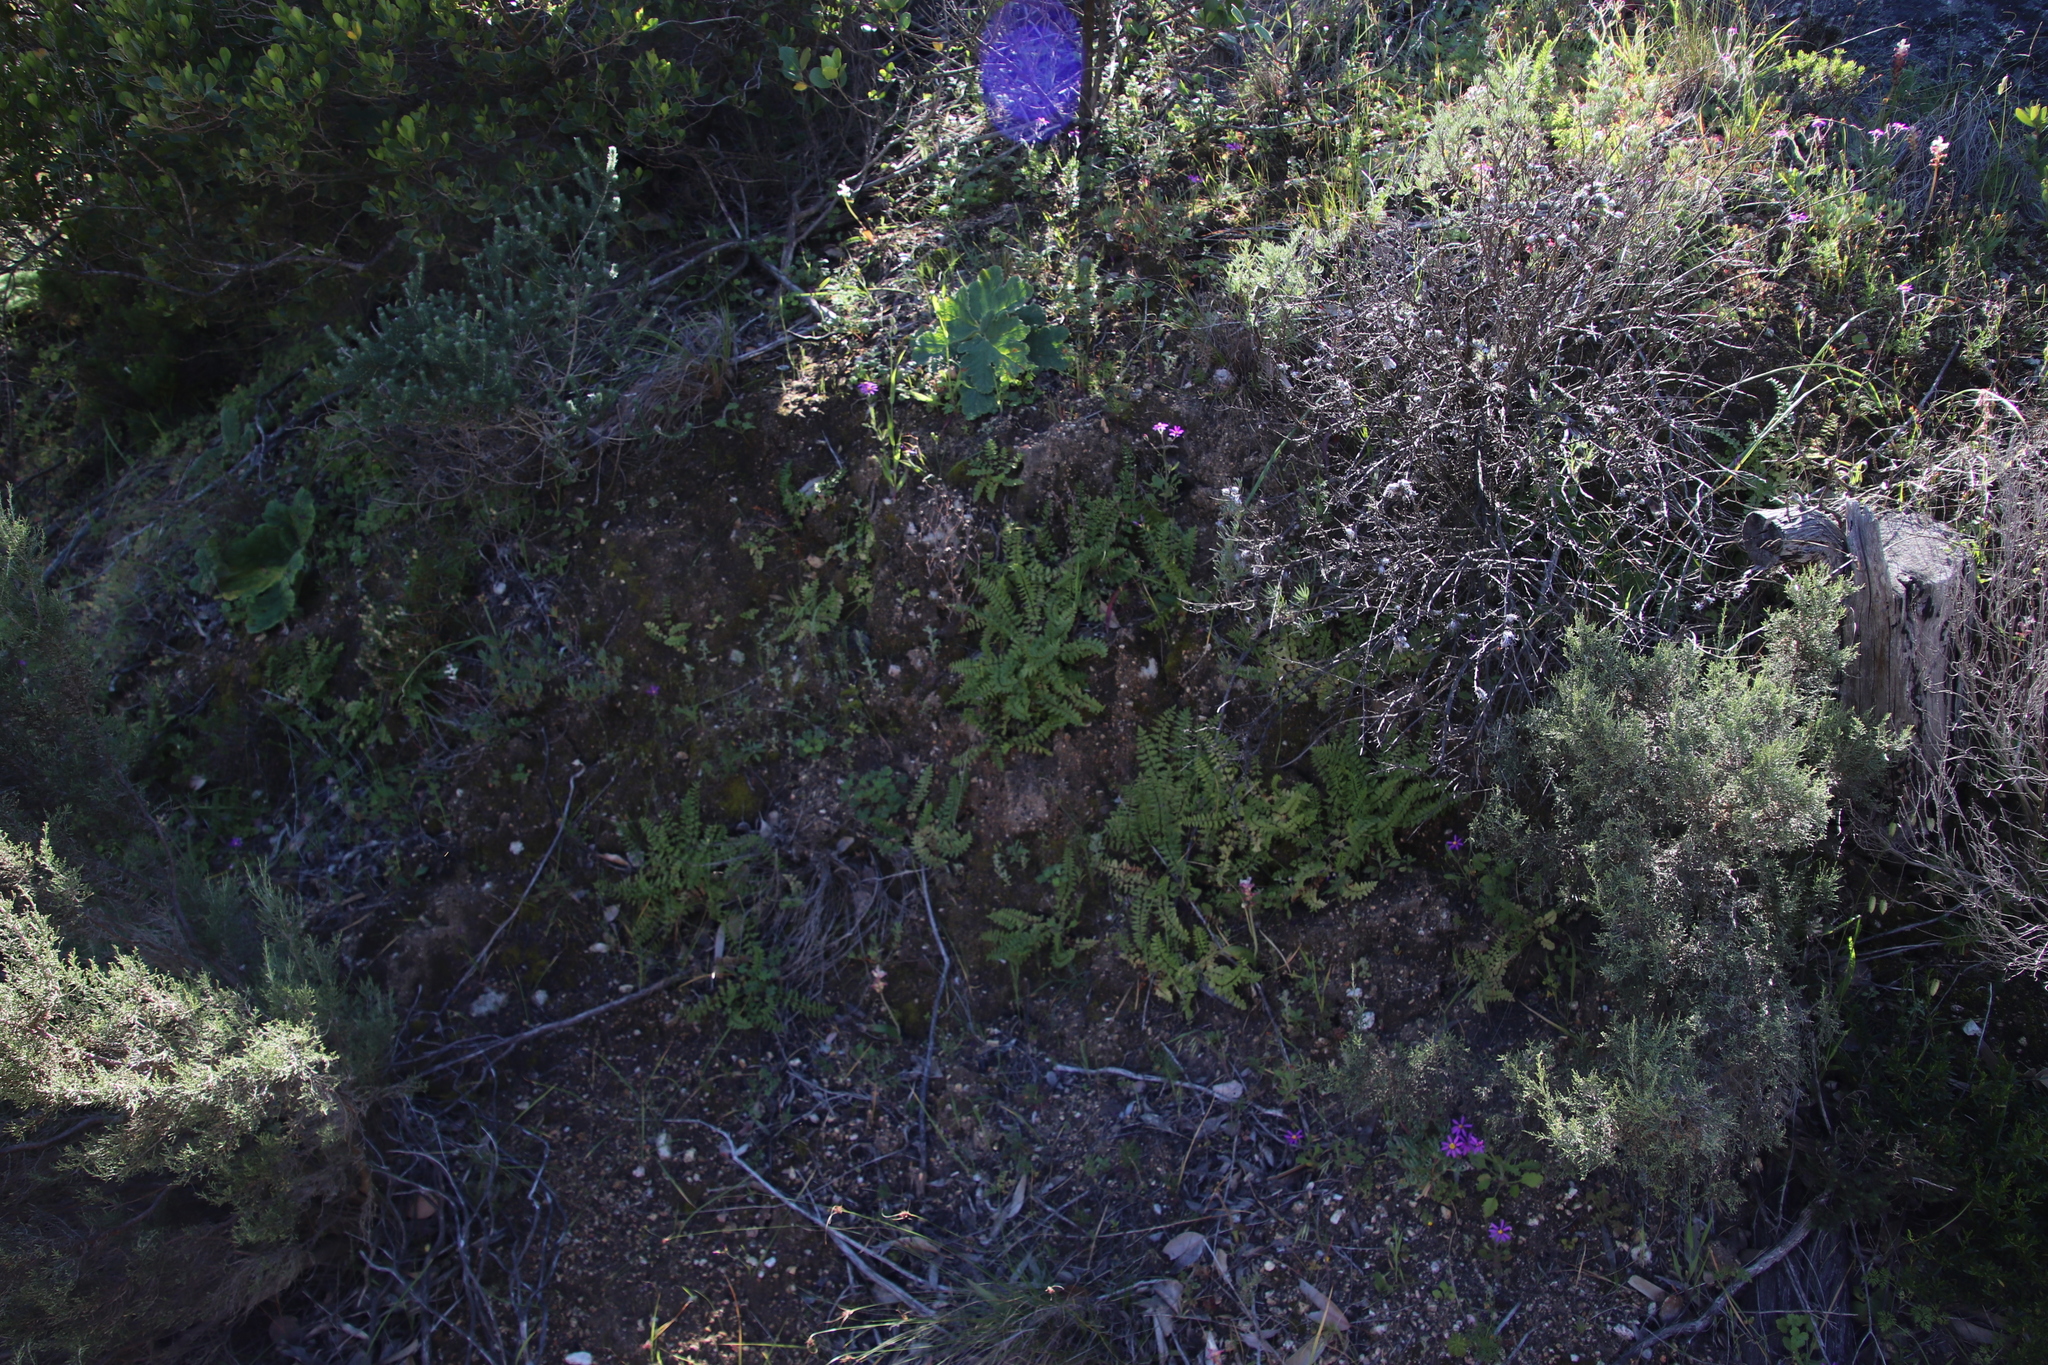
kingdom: Plantae
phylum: Tracheophyta
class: Polypodiopsida
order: Polypodiales
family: Pteridaceae
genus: Cheilanthes
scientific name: Cheilanthes hastata
